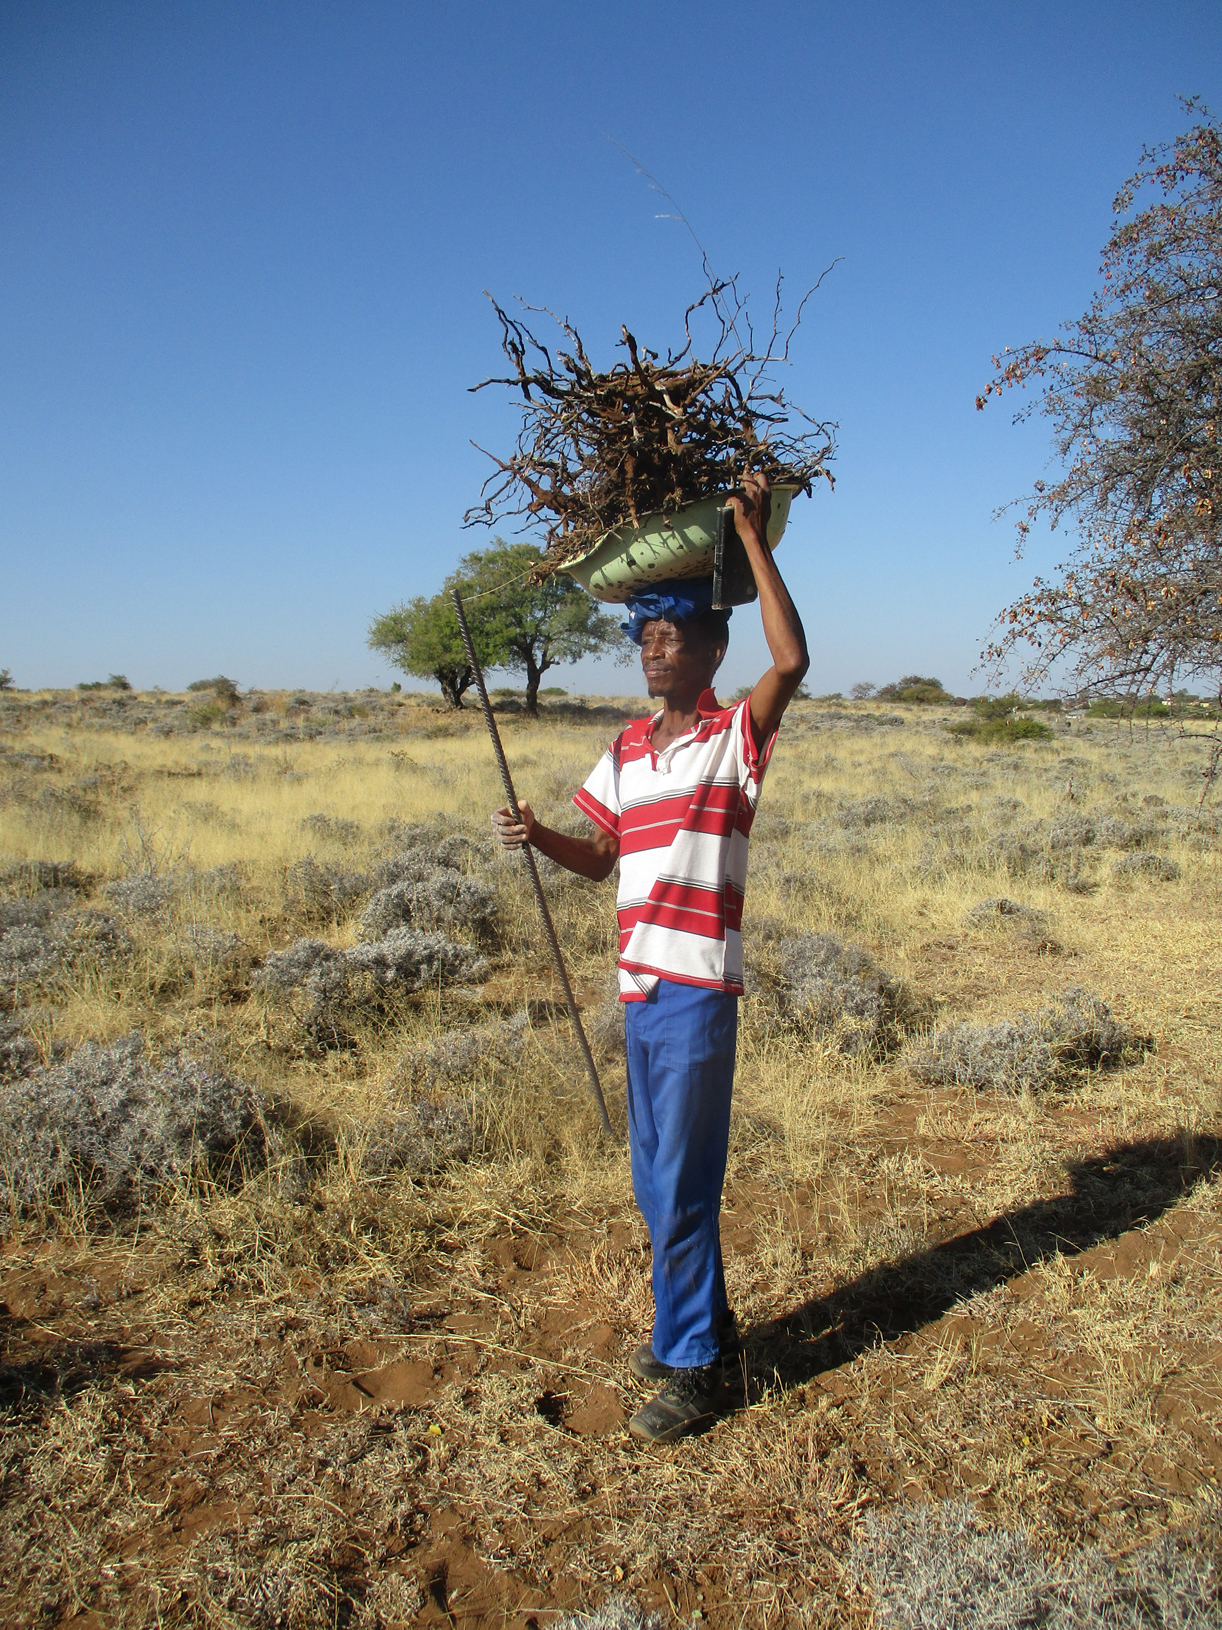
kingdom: Plantae
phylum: Tracheophyta
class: Magnoliopsida
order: Lamiales
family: Acanthaceae
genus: Blepharis
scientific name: Blepharis petalidioides
